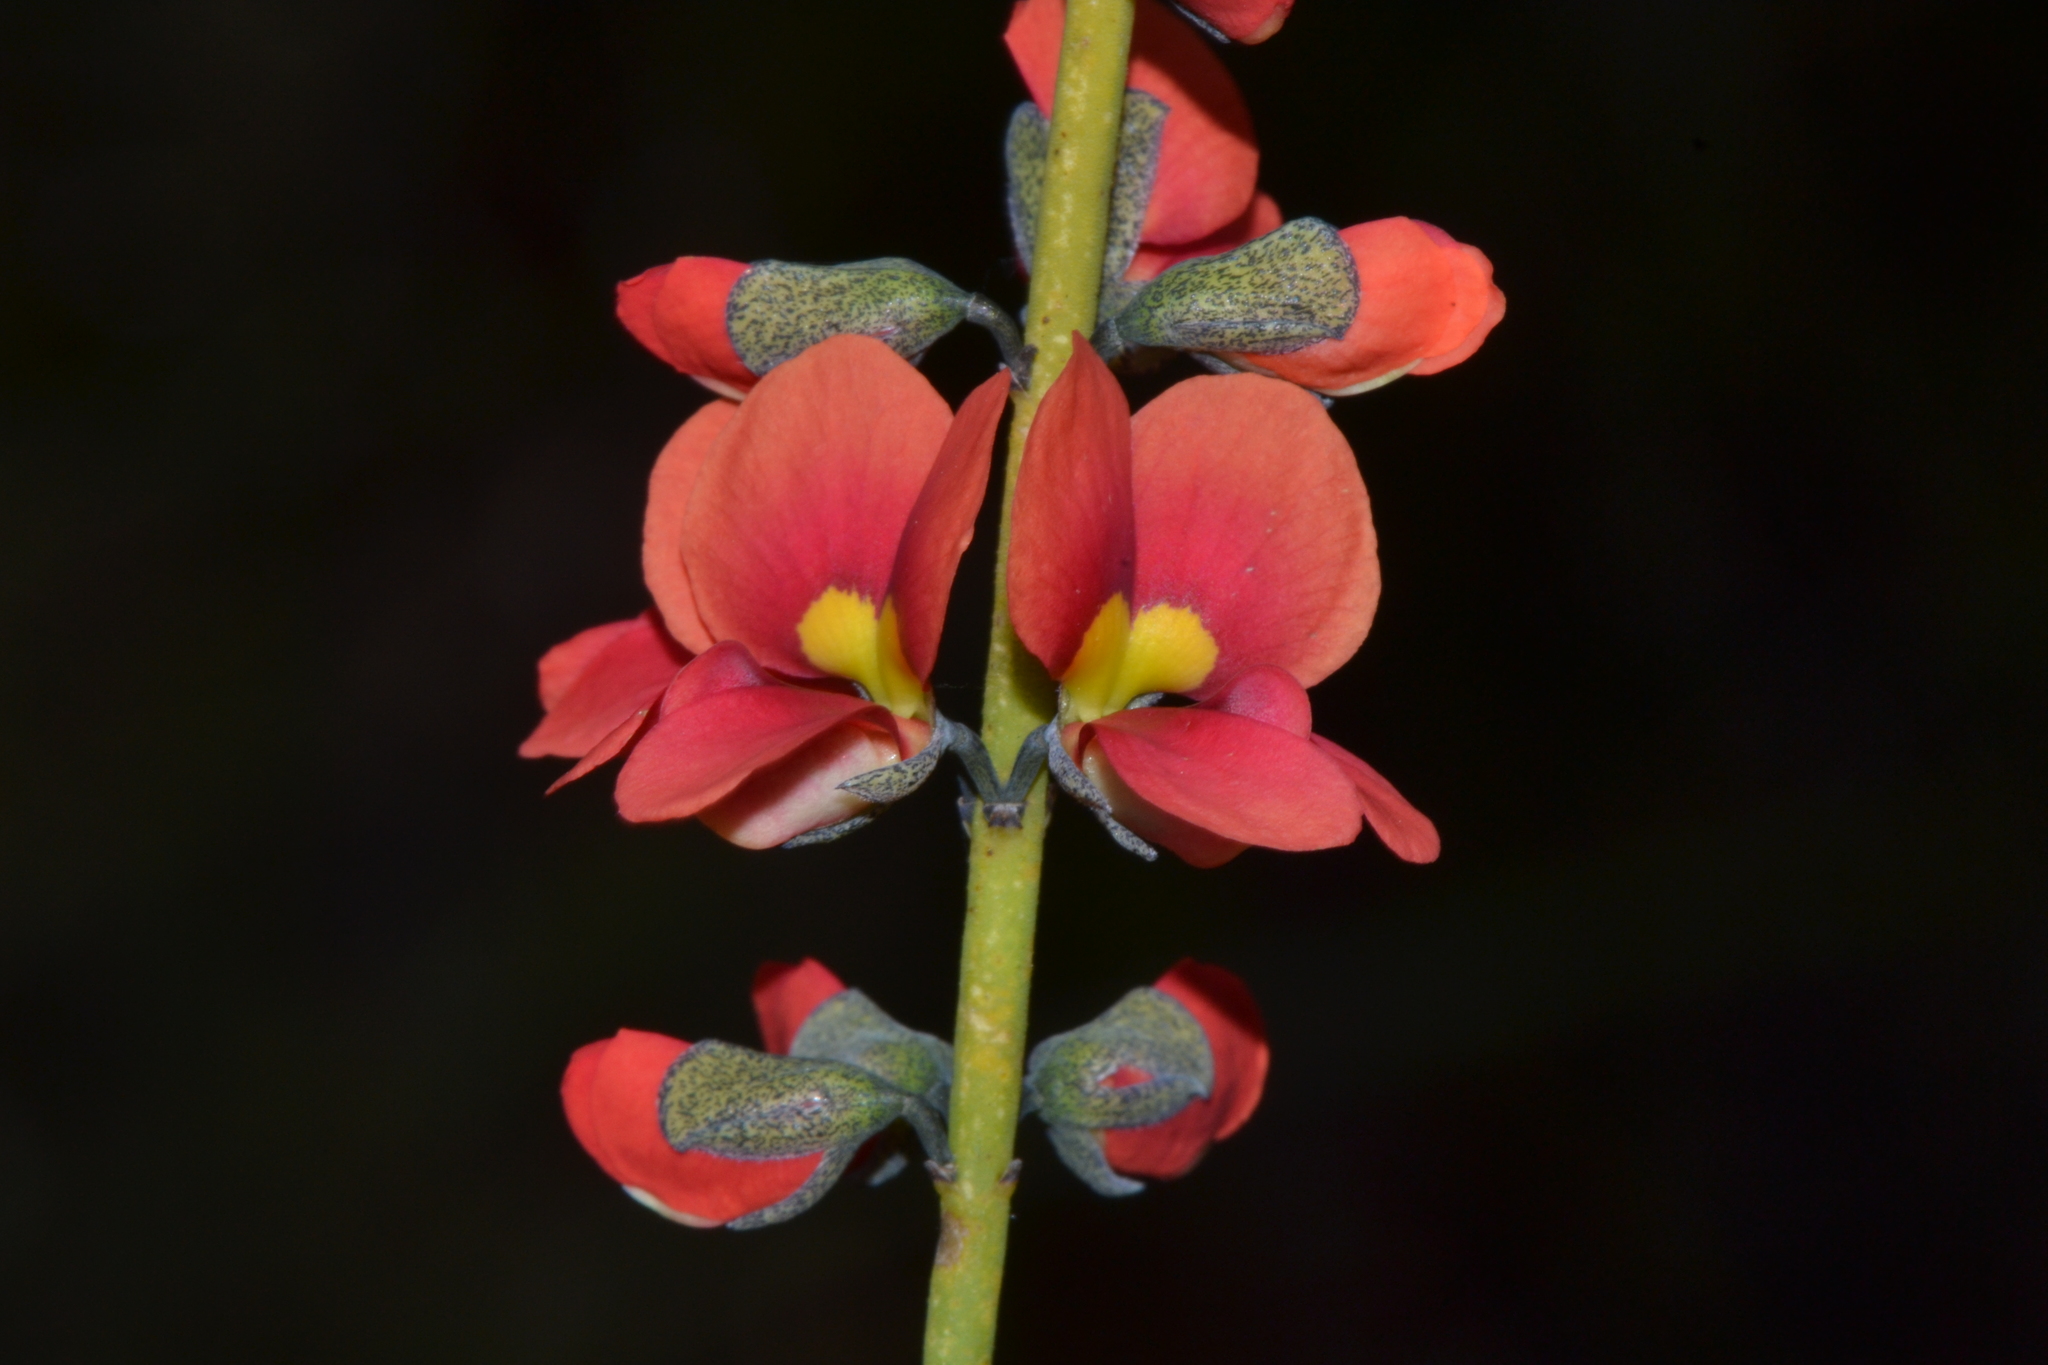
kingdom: Plantae
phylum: Tracheophyta
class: Magnoliopsida
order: Fabales
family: Fabaceae
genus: Sphaerolobium
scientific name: Sphaerolobium drummondii
